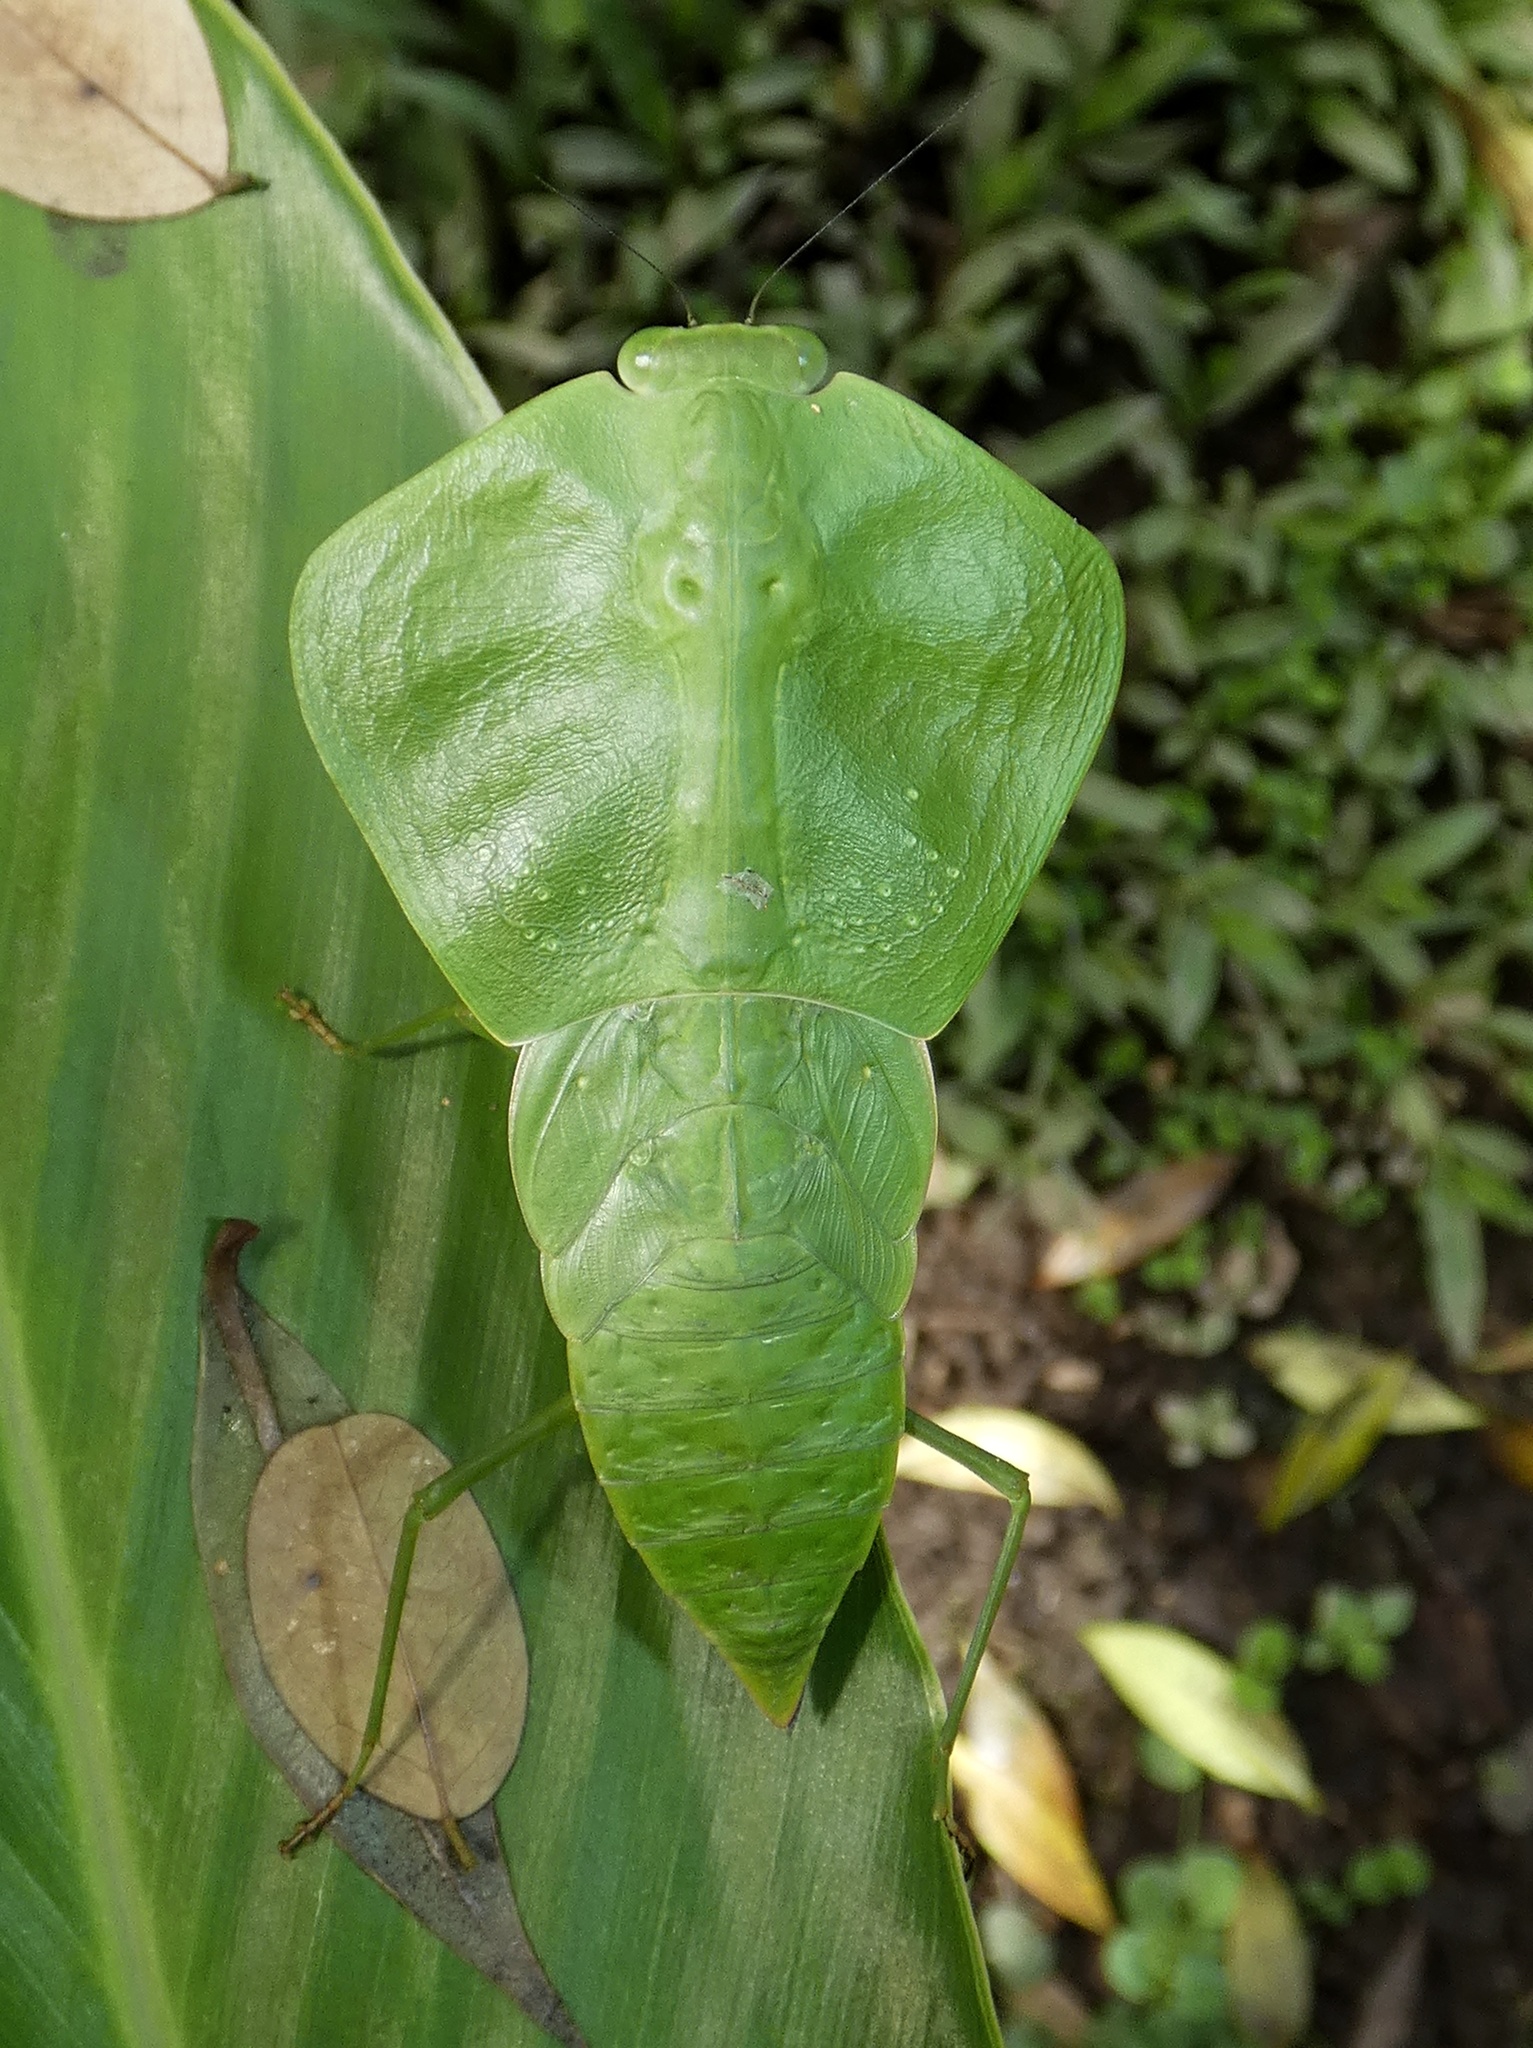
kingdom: Animalia
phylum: Arthropoda
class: Insecta
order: Mantodea
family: Mantidae
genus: Choeradodis
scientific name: Choeradodis rhombicollis
